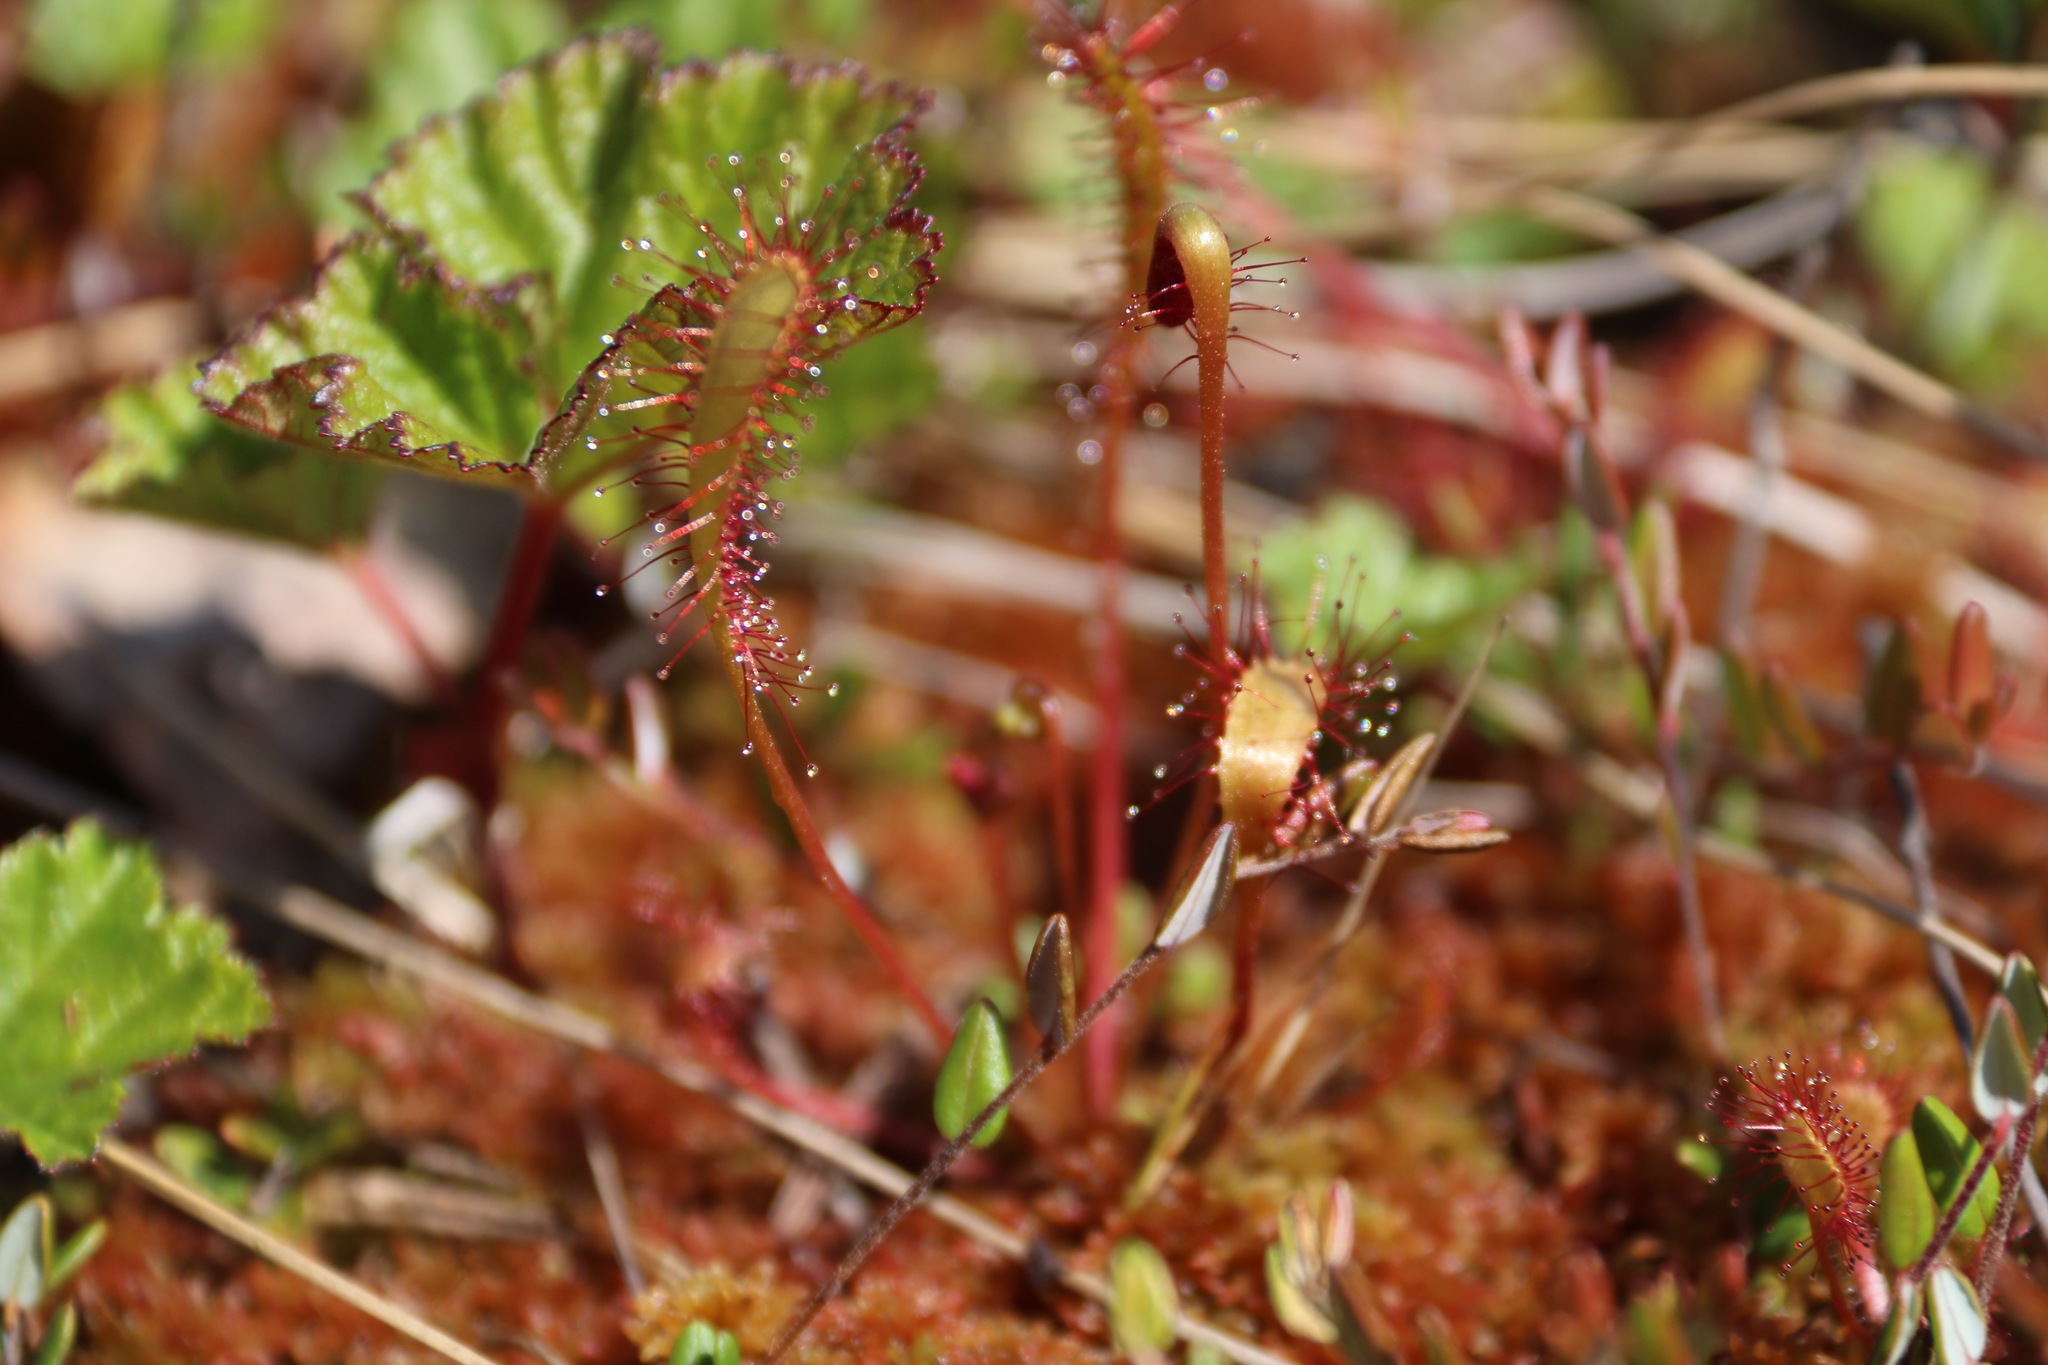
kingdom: Plantae
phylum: Tracheophyta
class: Magnoliopsida
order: Caryophyllales
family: Droseraceae
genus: Drosera
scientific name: Drosera anglica
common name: Great sundew
